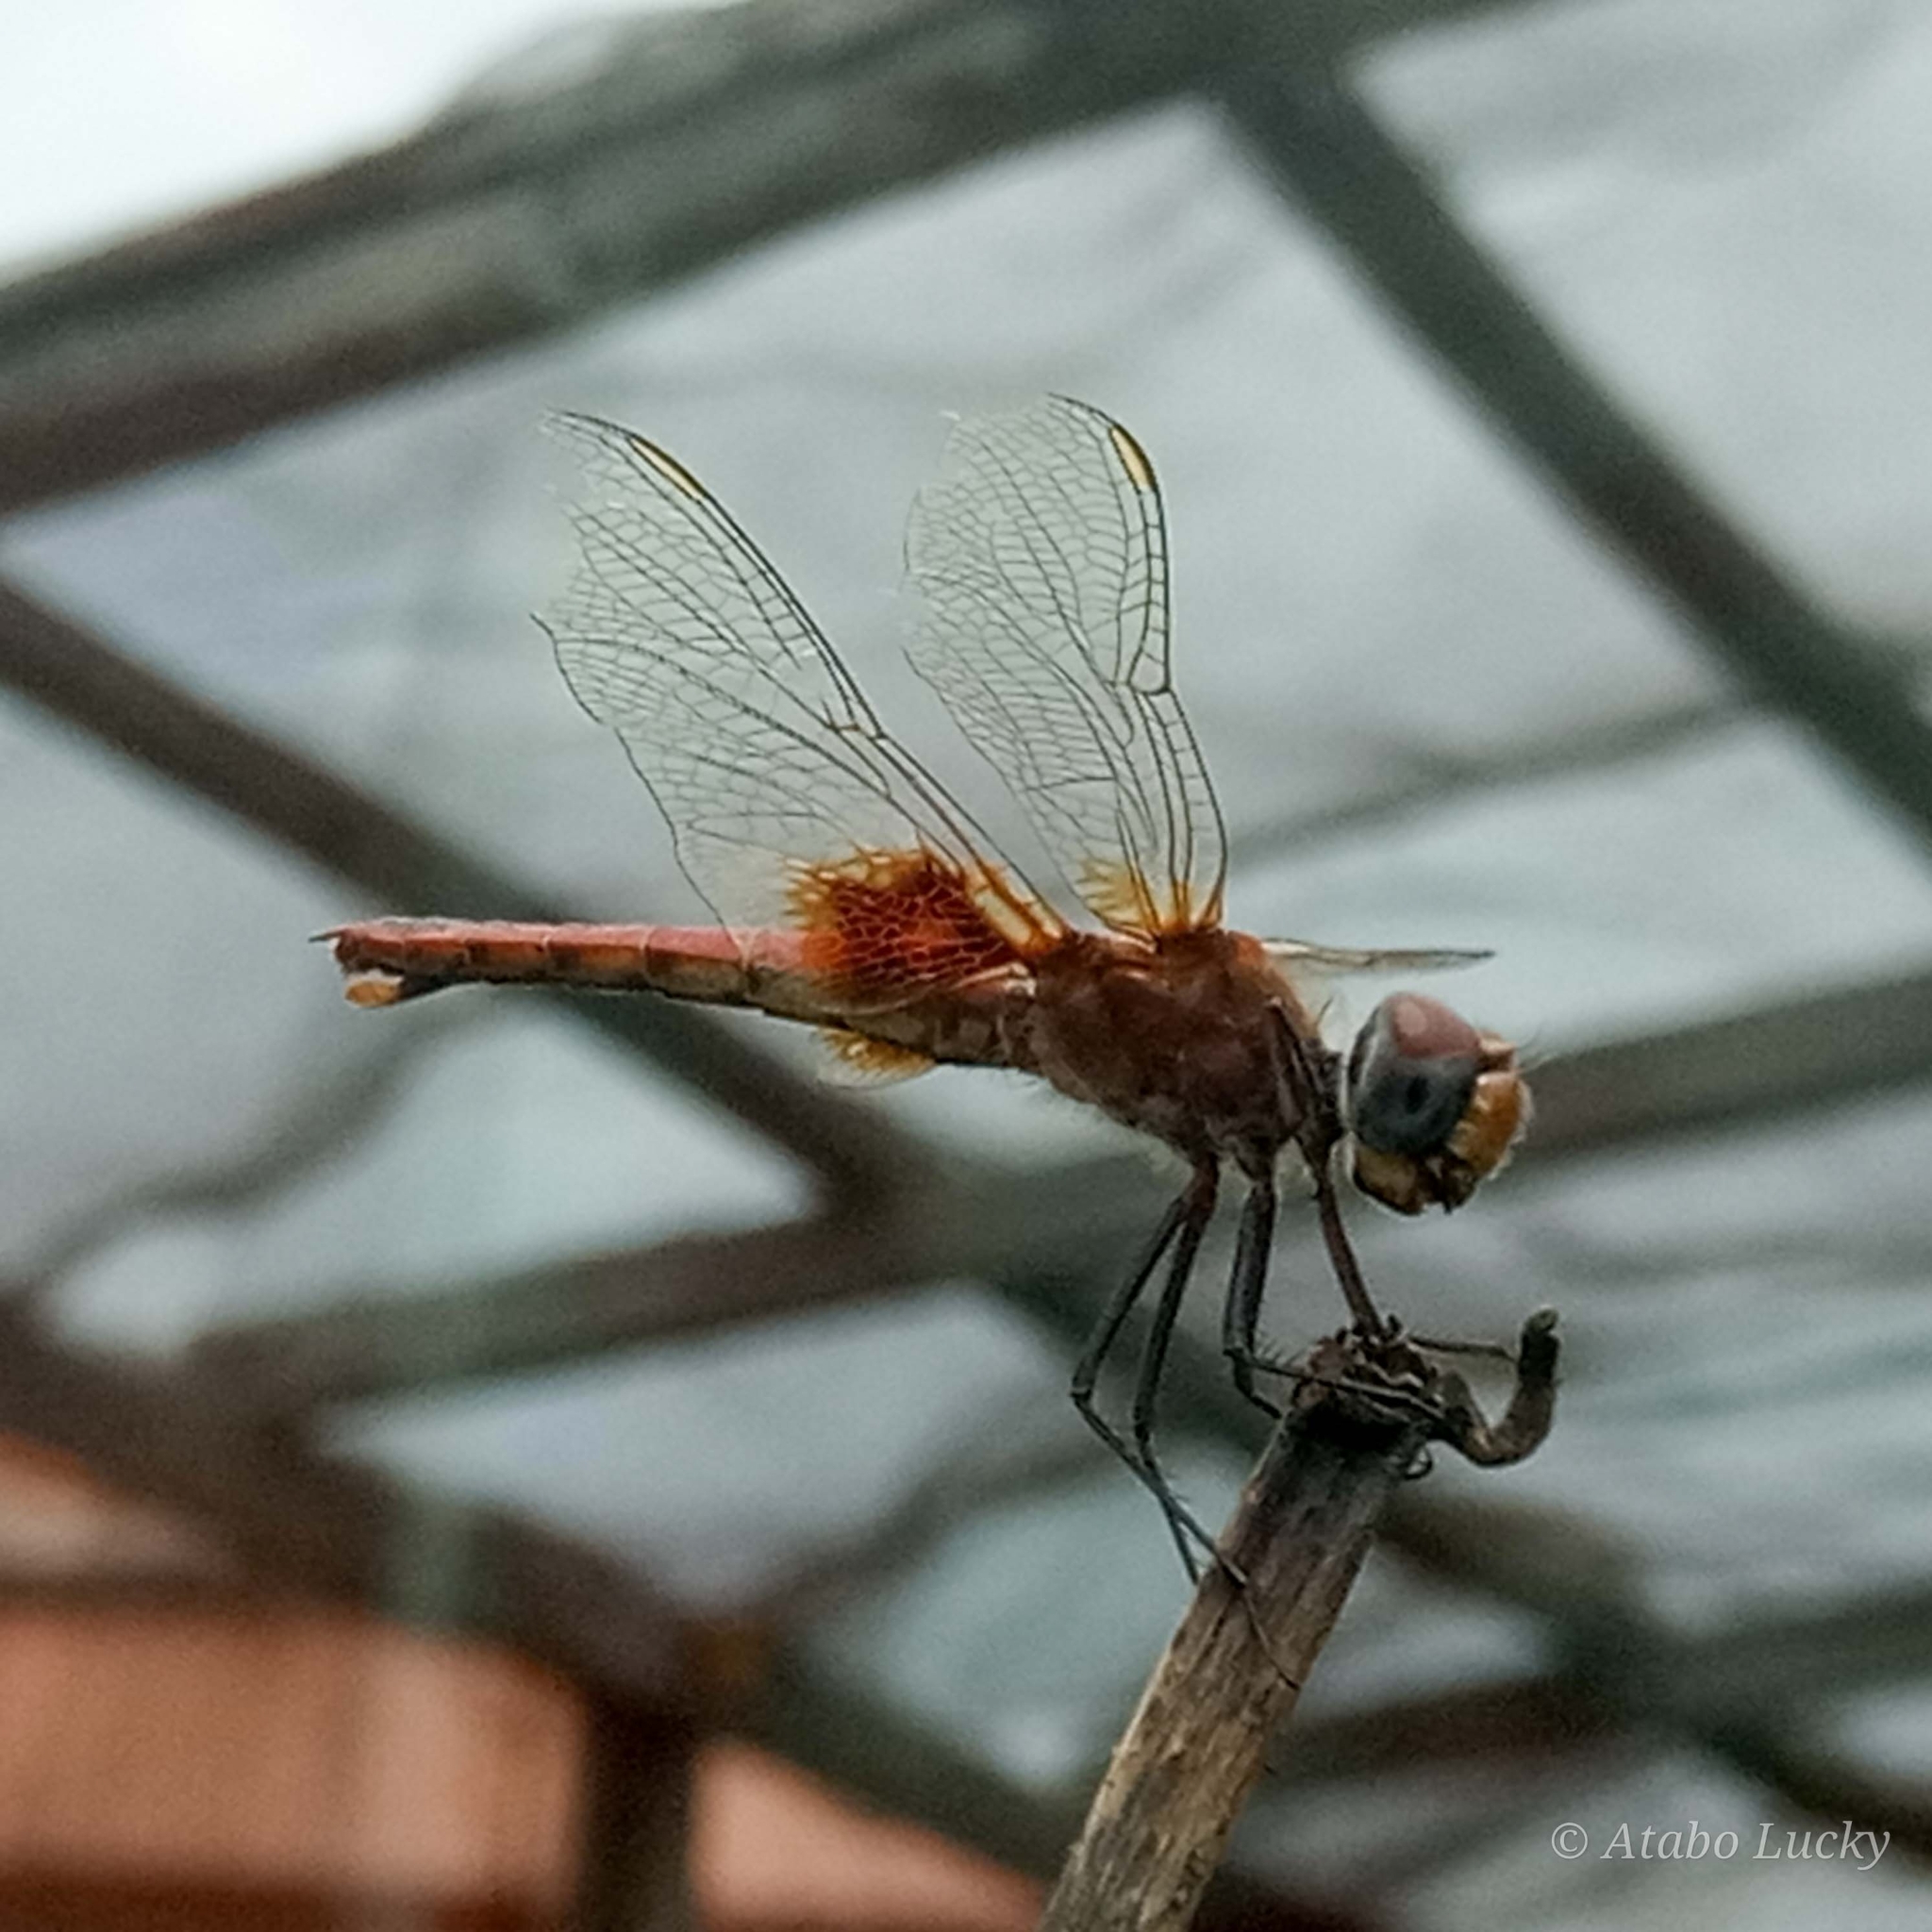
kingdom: Animalia
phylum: Arthropoda
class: Insecta
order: Odonata
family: Libellulidae
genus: Urothemis
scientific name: Urothemis assignata
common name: Red basker
